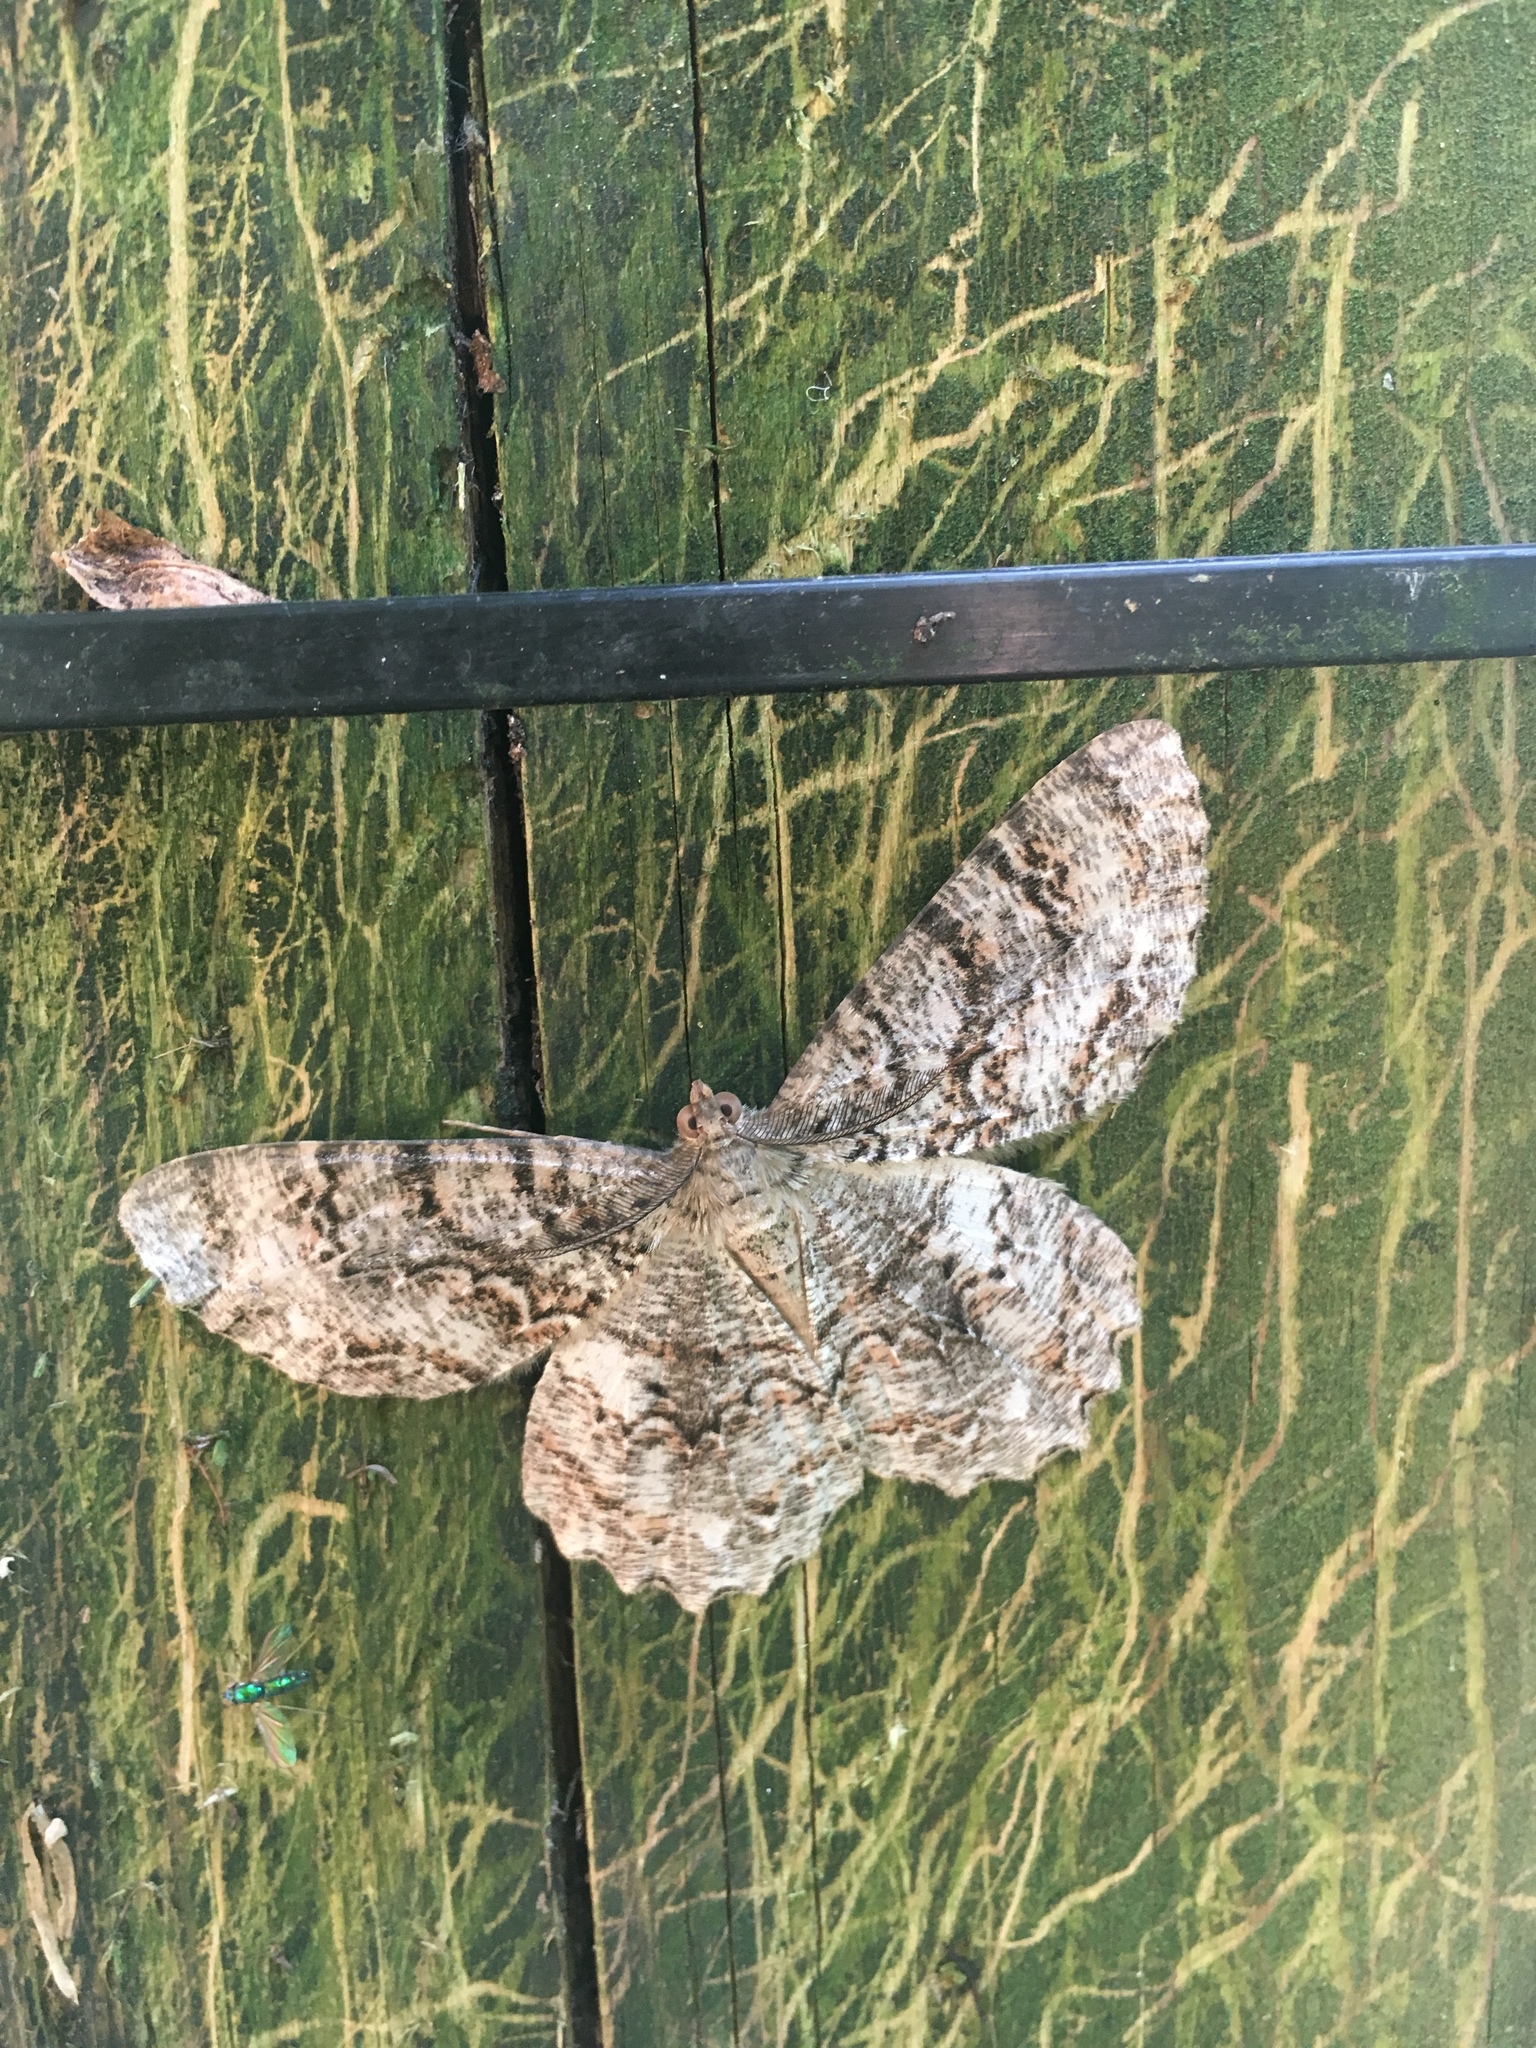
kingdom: Animalia
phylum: Arthropoda
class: Insecta
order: Lepidoptera
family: Geometridae
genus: Epimecis
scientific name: Epimecis hortaria
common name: Tulip-tree beauty
